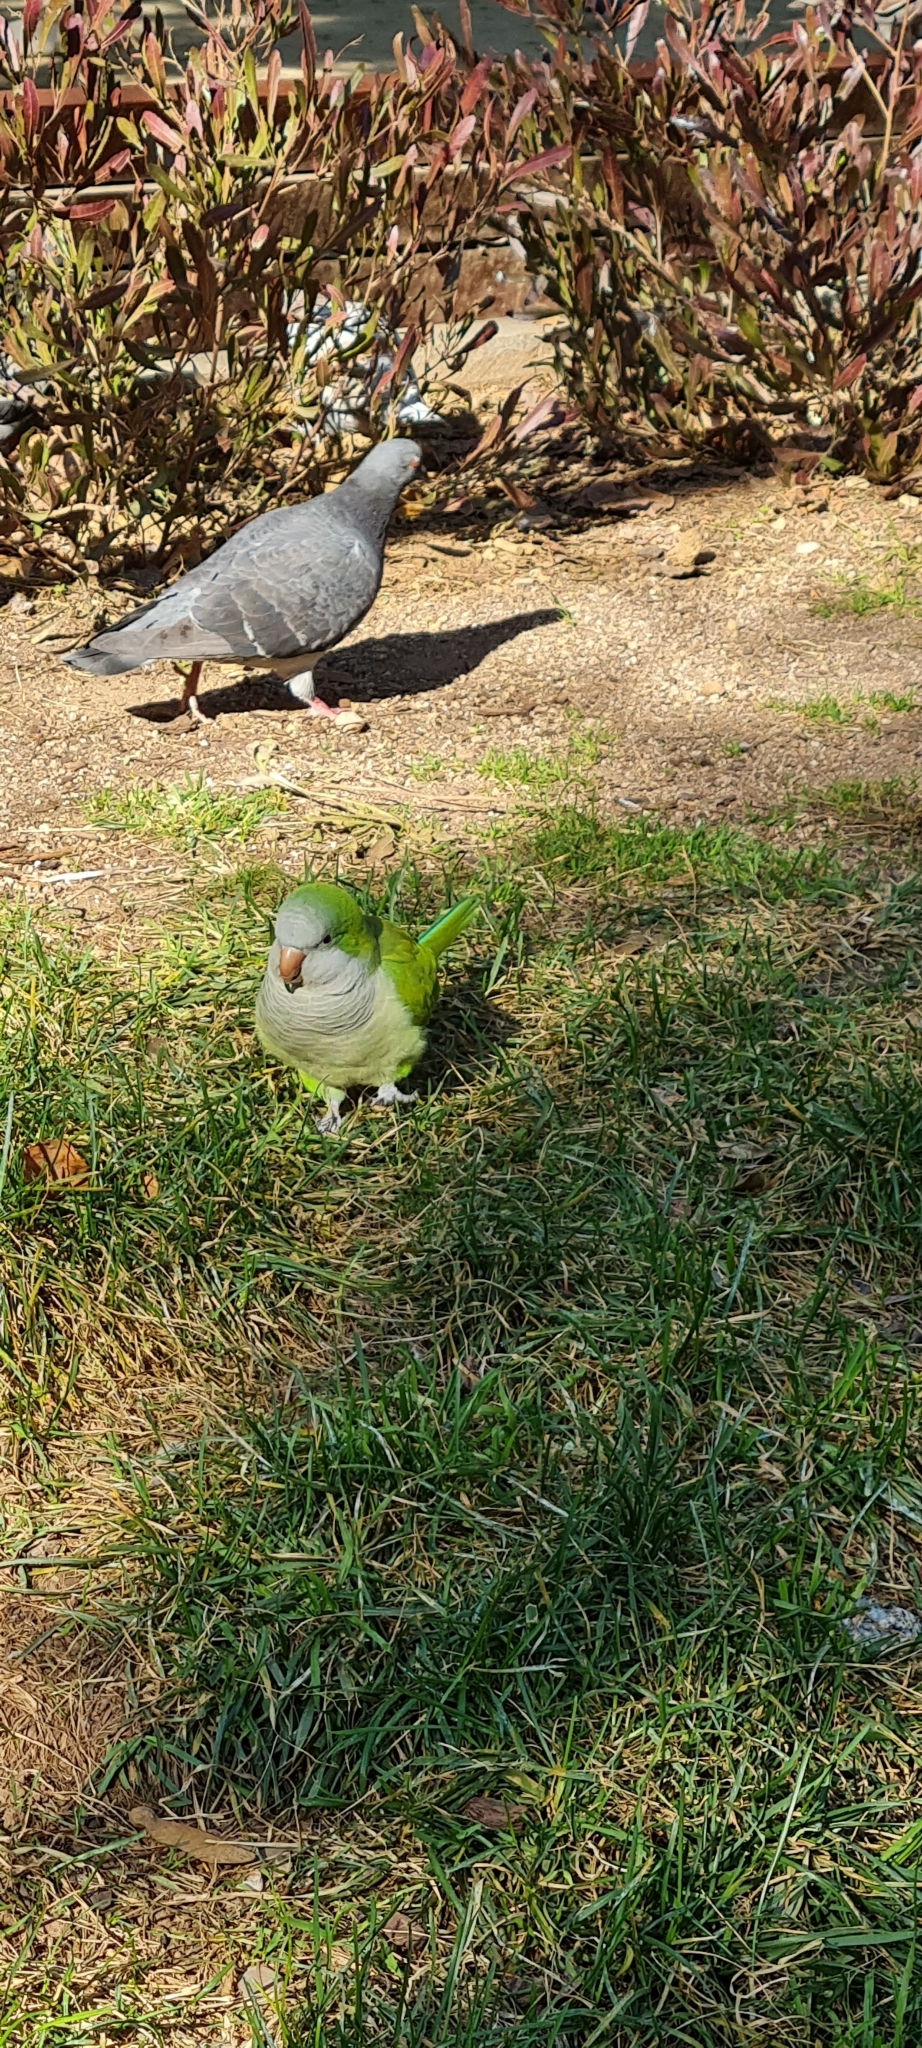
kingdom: Animalia
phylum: Chordata
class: Aves
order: Psittaciformes
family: Psittacidae
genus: Myiopsitta
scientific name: Myiopsitta monachus
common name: Monk parakeet
